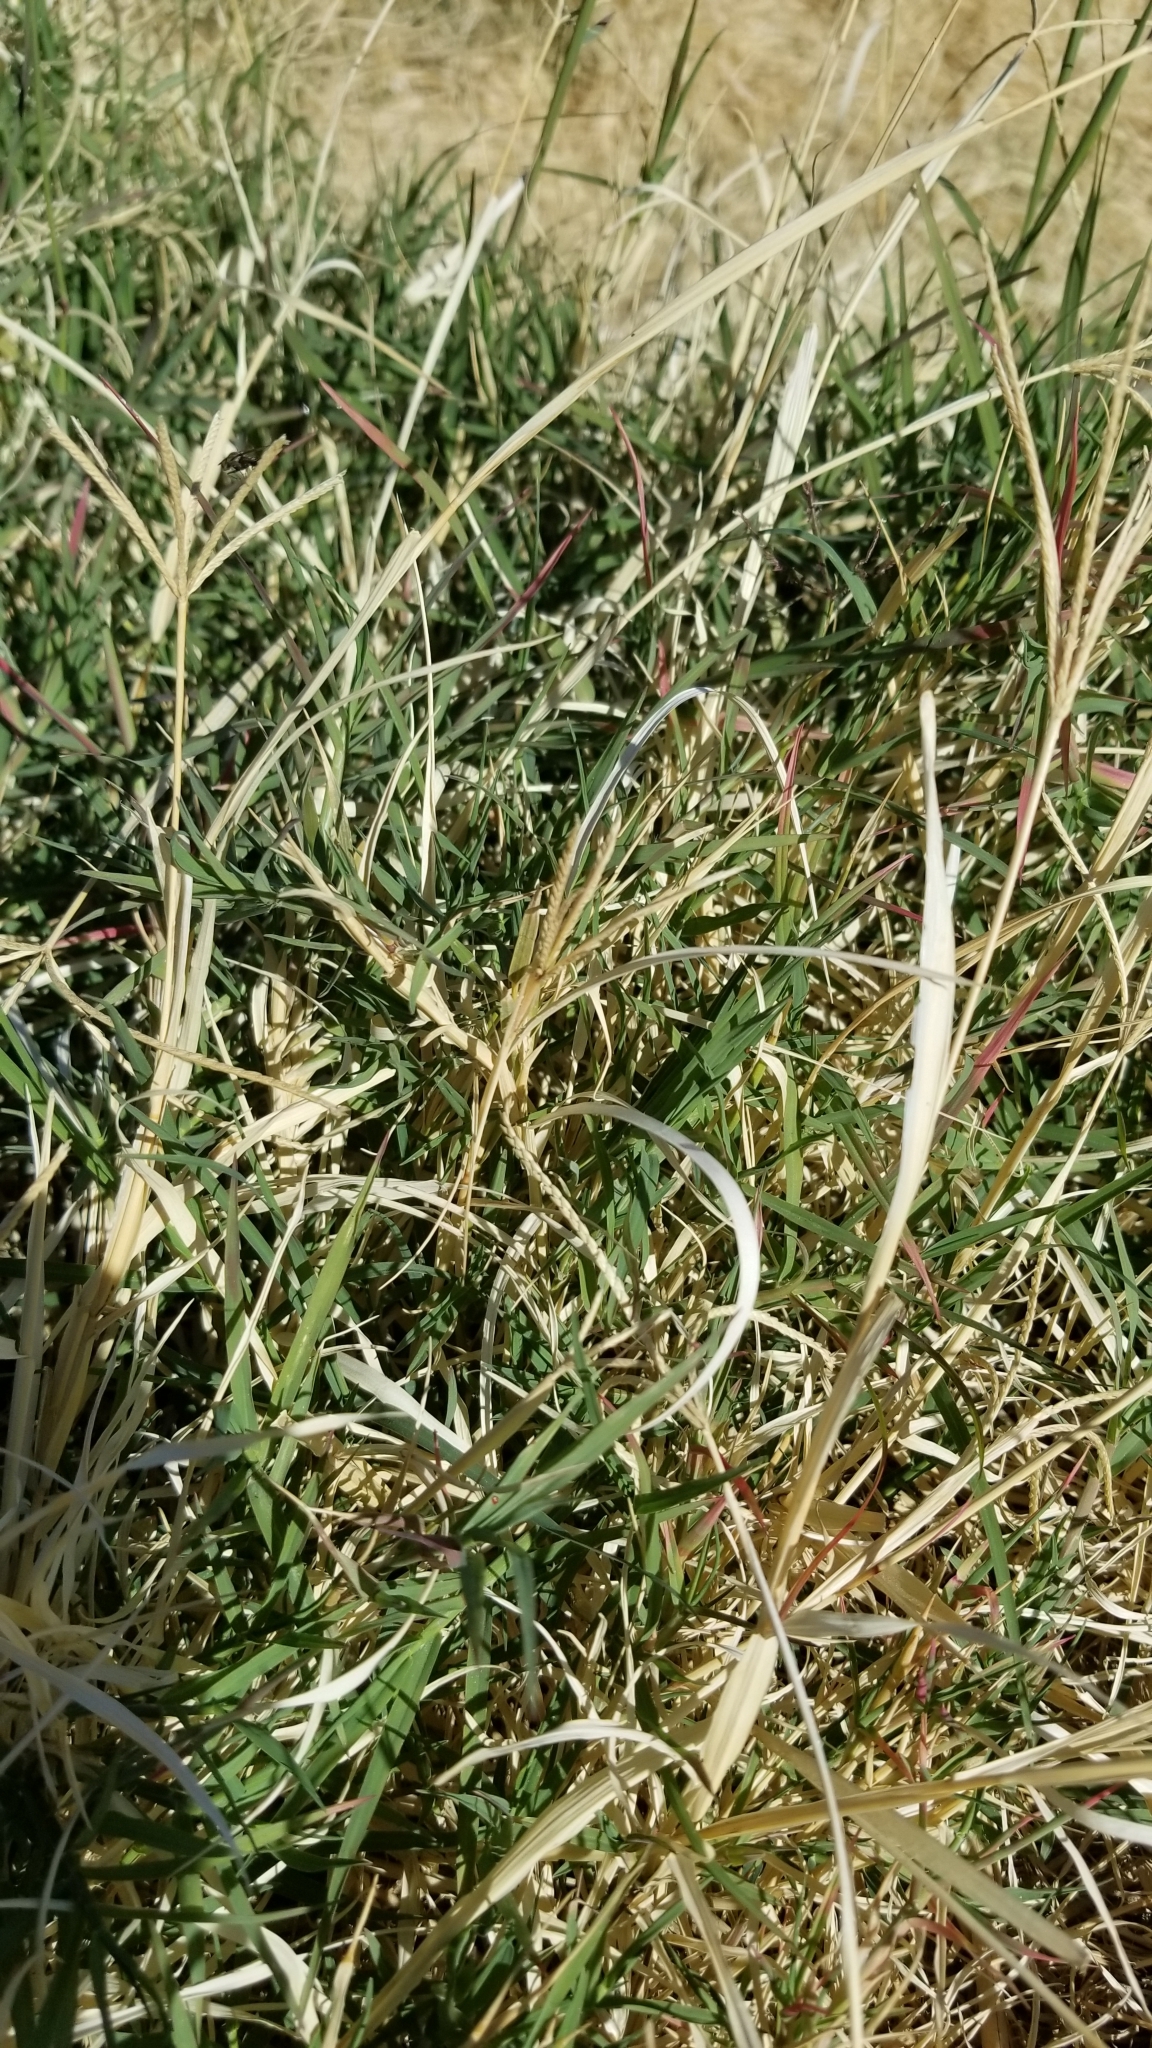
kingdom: Plantae
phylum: Tracheophyta
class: Liliopsida
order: Poales
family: Poaceae
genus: Cynodon
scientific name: Cynodon dactylon
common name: Bermuda grass
